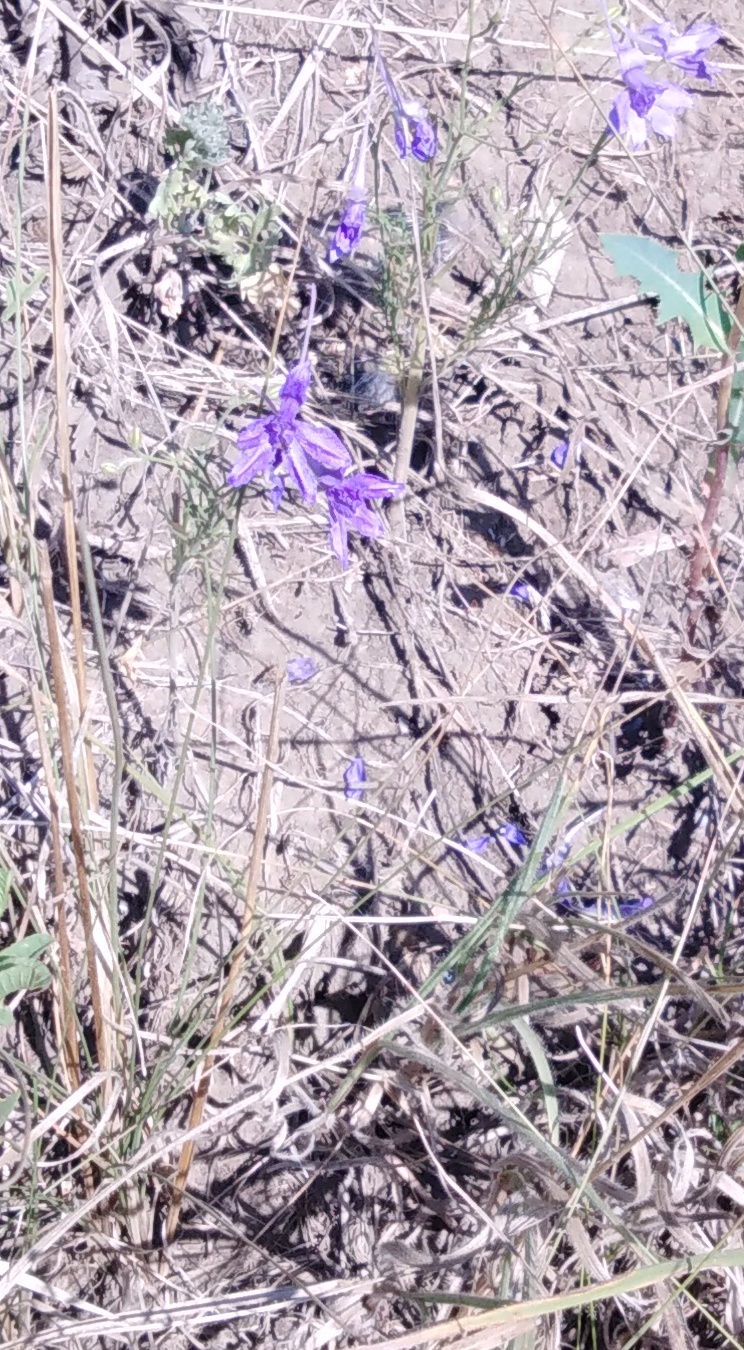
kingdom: Plantae
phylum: Tracheophyta
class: Magnoliopsida
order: Ranunculales
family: Ranunculaceae
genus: Delphinium
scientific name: Delphinium consolida
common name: Branching larkspur
